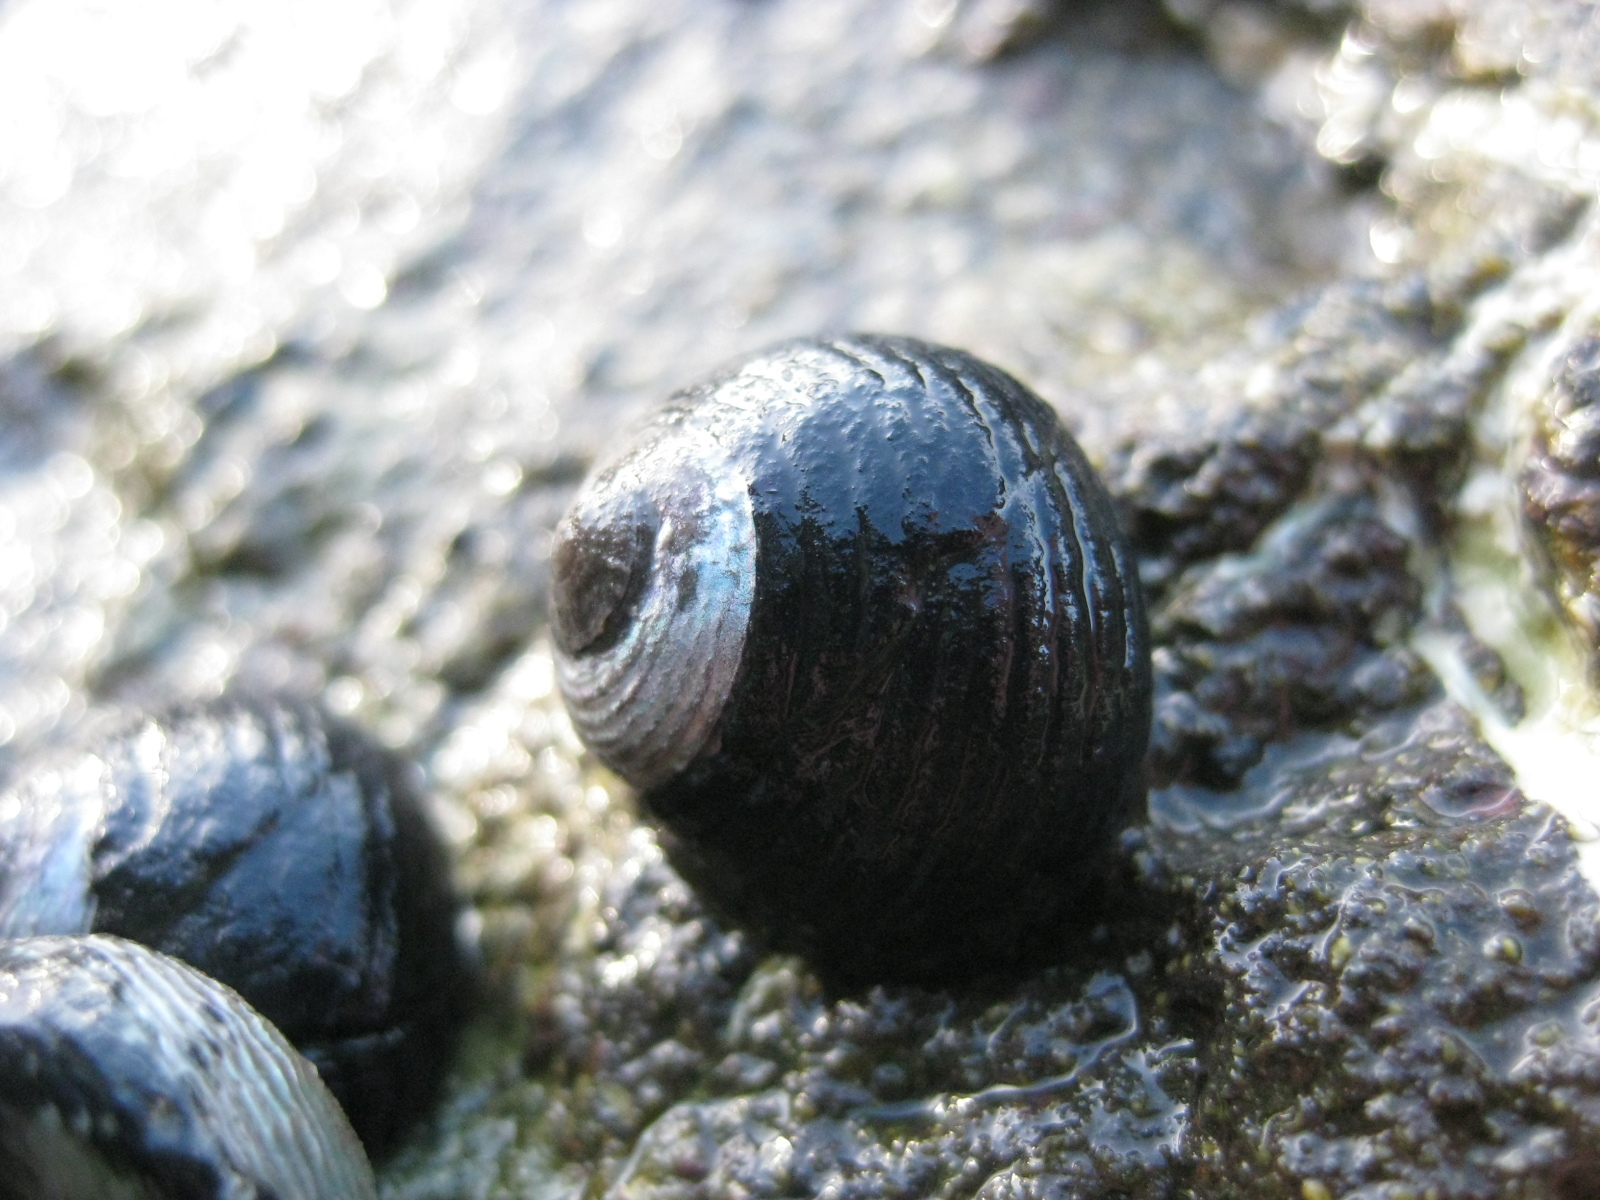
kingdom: Animalia
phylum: Mollusca
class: Gastropoda
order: Trochida
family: Trochidae
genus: Diloma
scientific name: Diloma zelandicum
